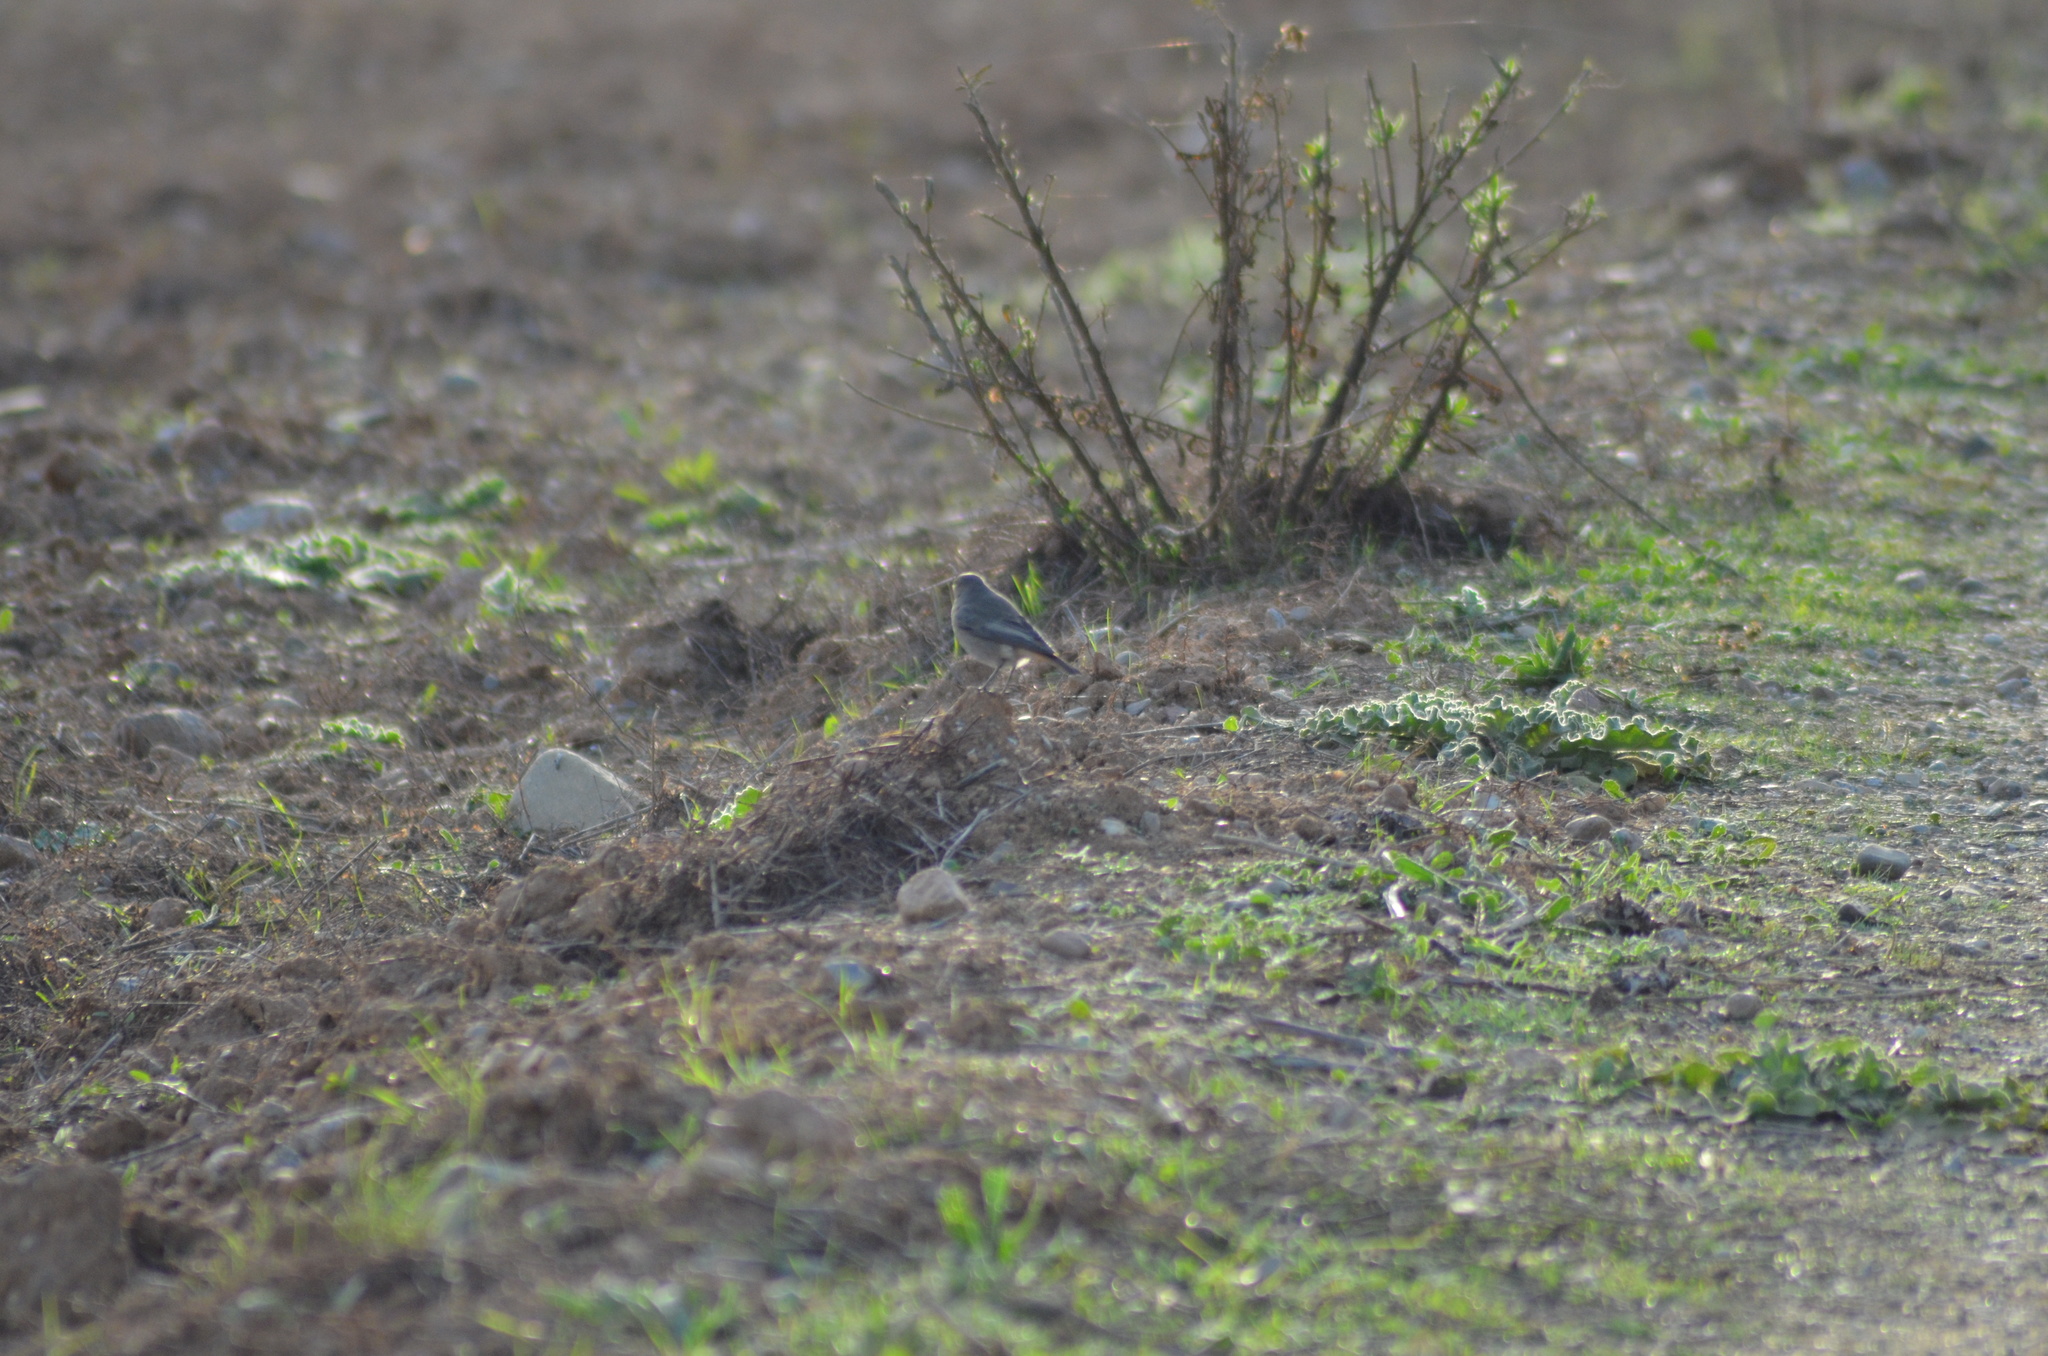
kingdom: Animalia
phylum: Chordata
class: Aves
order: Passeriformes
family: Muscicapidae
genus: Phoenicurus
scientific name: Phoenicurus ochruros
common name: Black redstart
